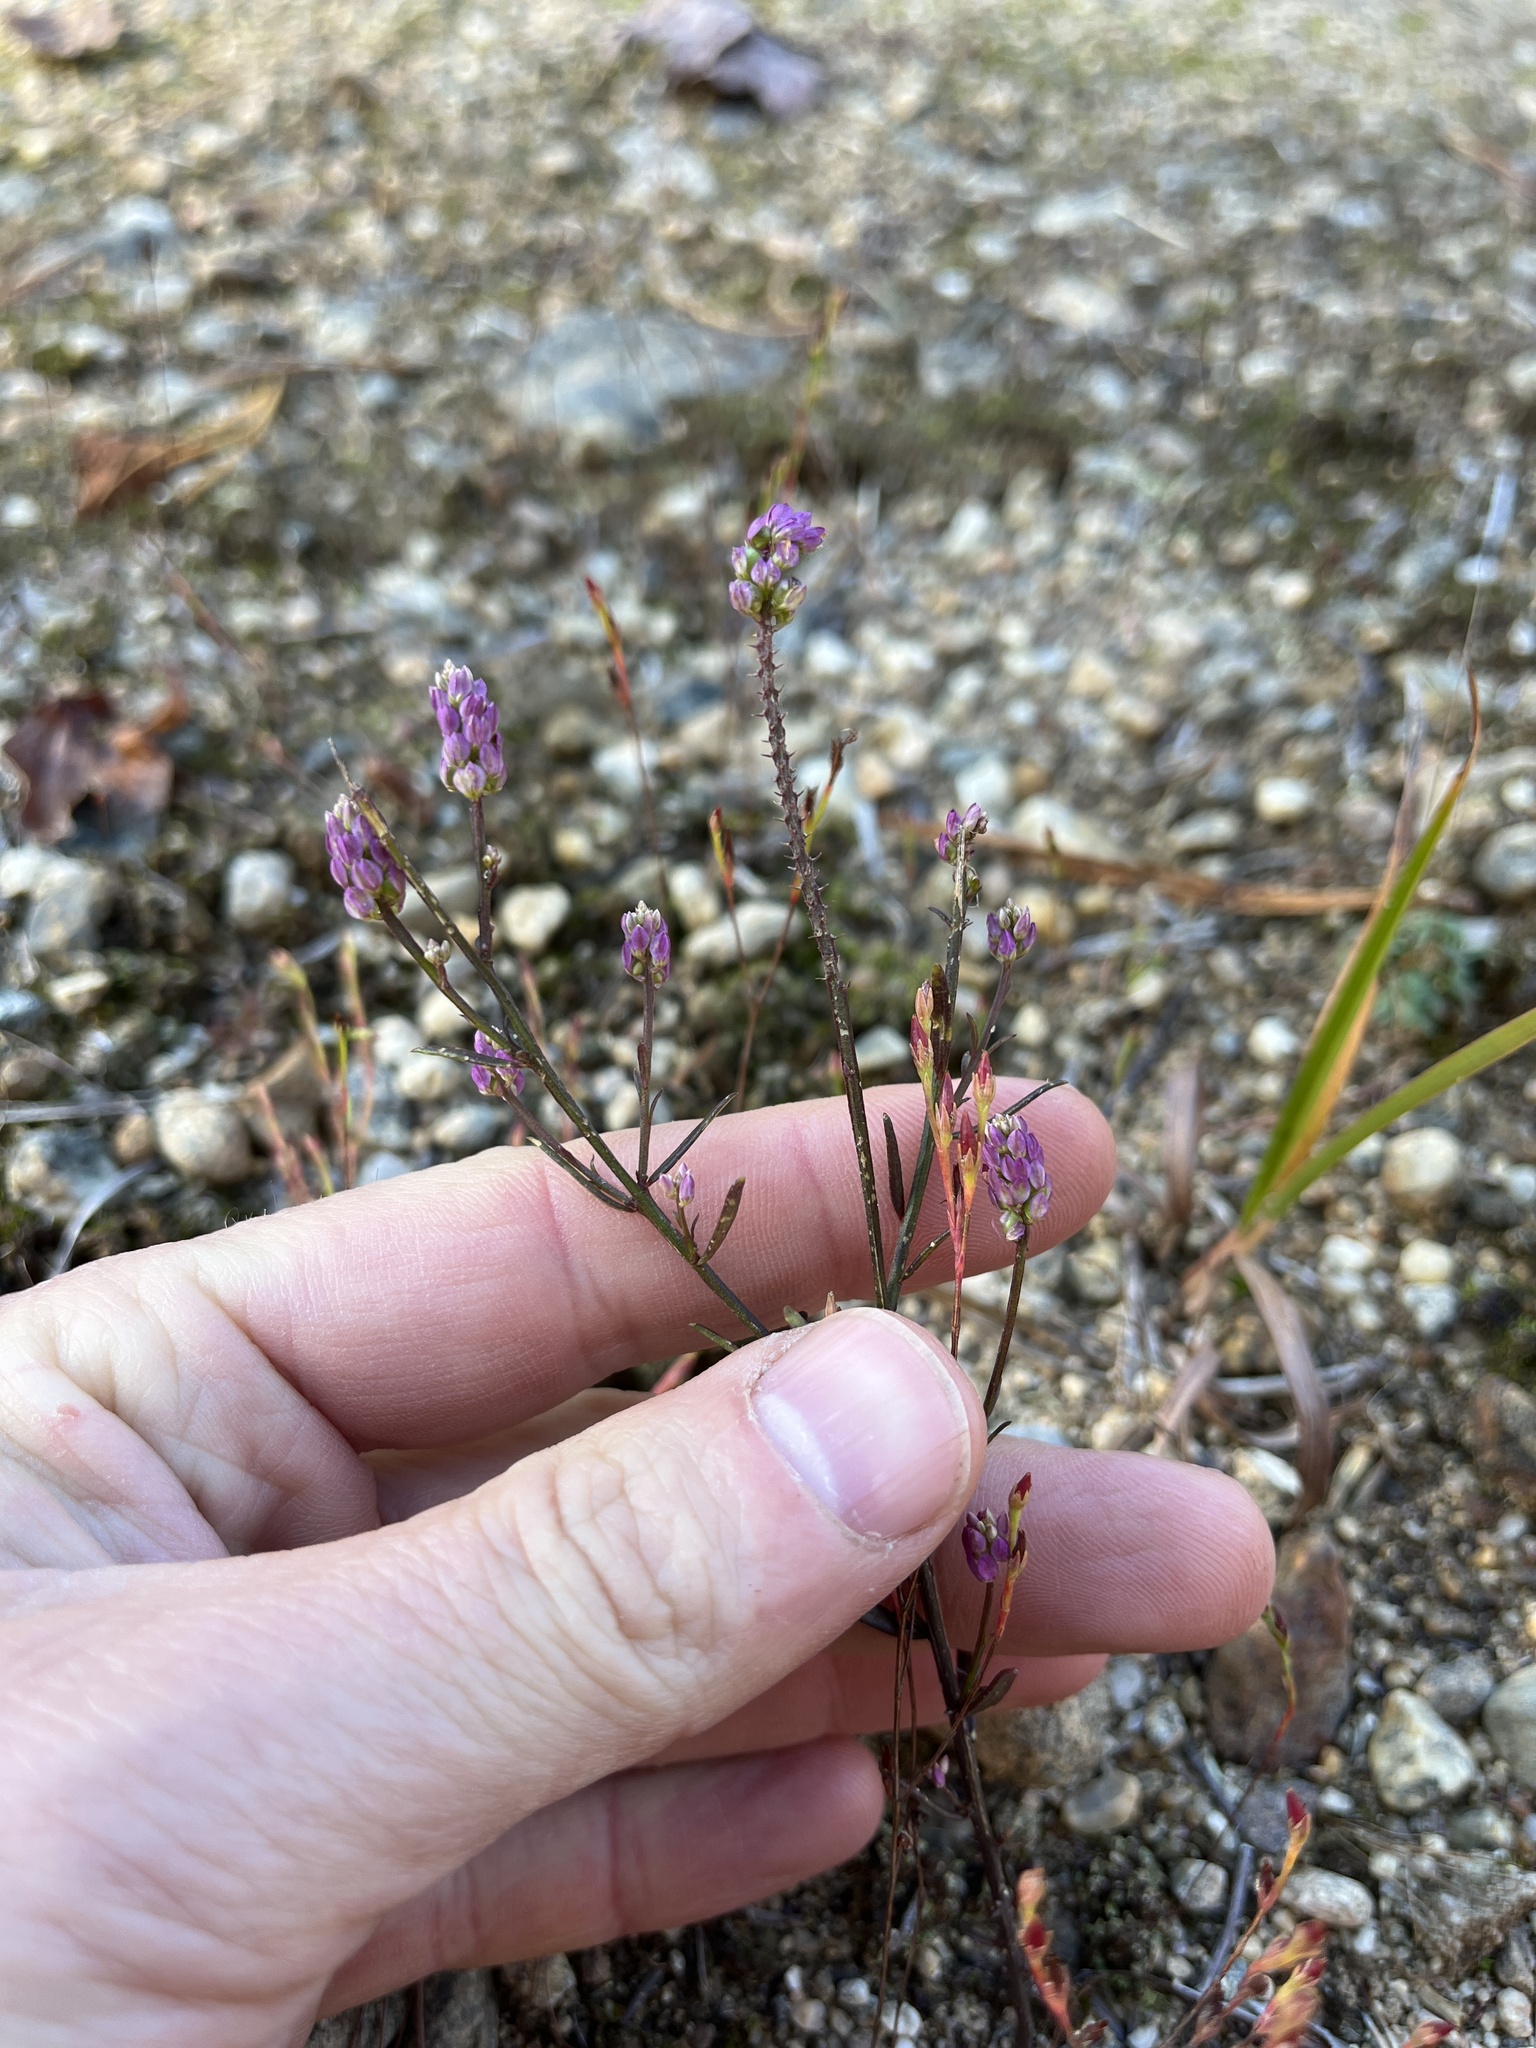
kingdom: Plantae
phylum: Tracheophyta
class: Magnoliopsida
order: Fabales
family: Polygalaceae
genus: Polygala
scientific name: Polygala sanguinea
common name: Blood milkwort
